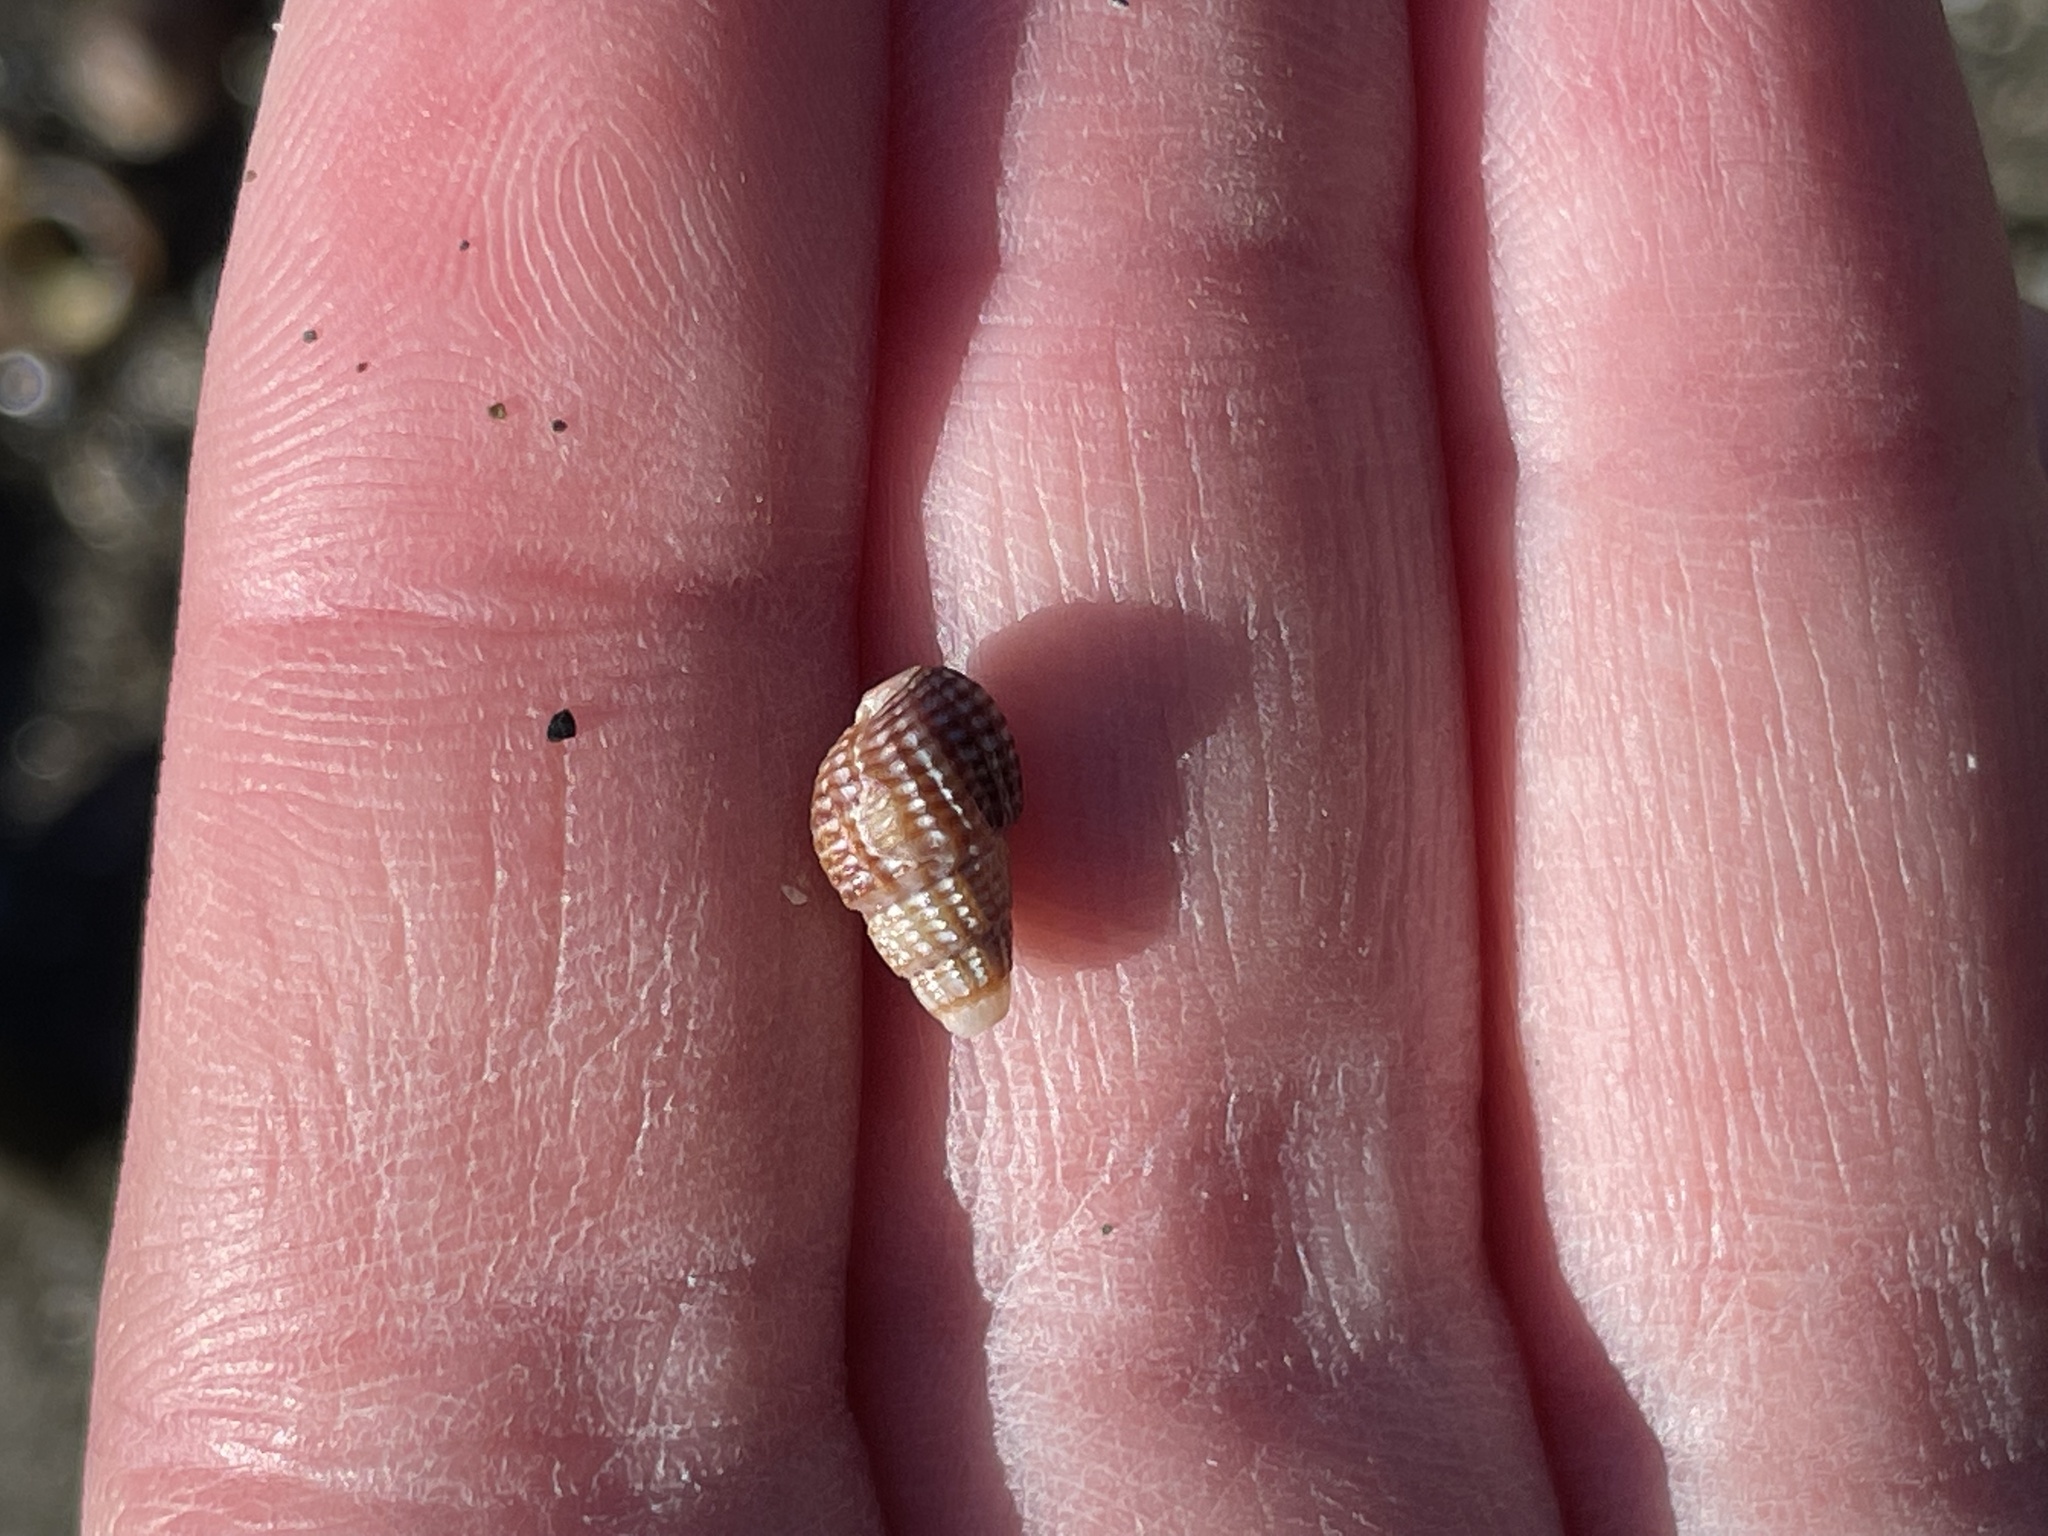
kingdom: Animalia
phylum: Mollusca
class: Gastropoda
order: Neogastropoda
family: Nassariidae
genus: Ilyanassa
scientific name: Ilyanassa trivittata
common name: Three-line mudsnail
